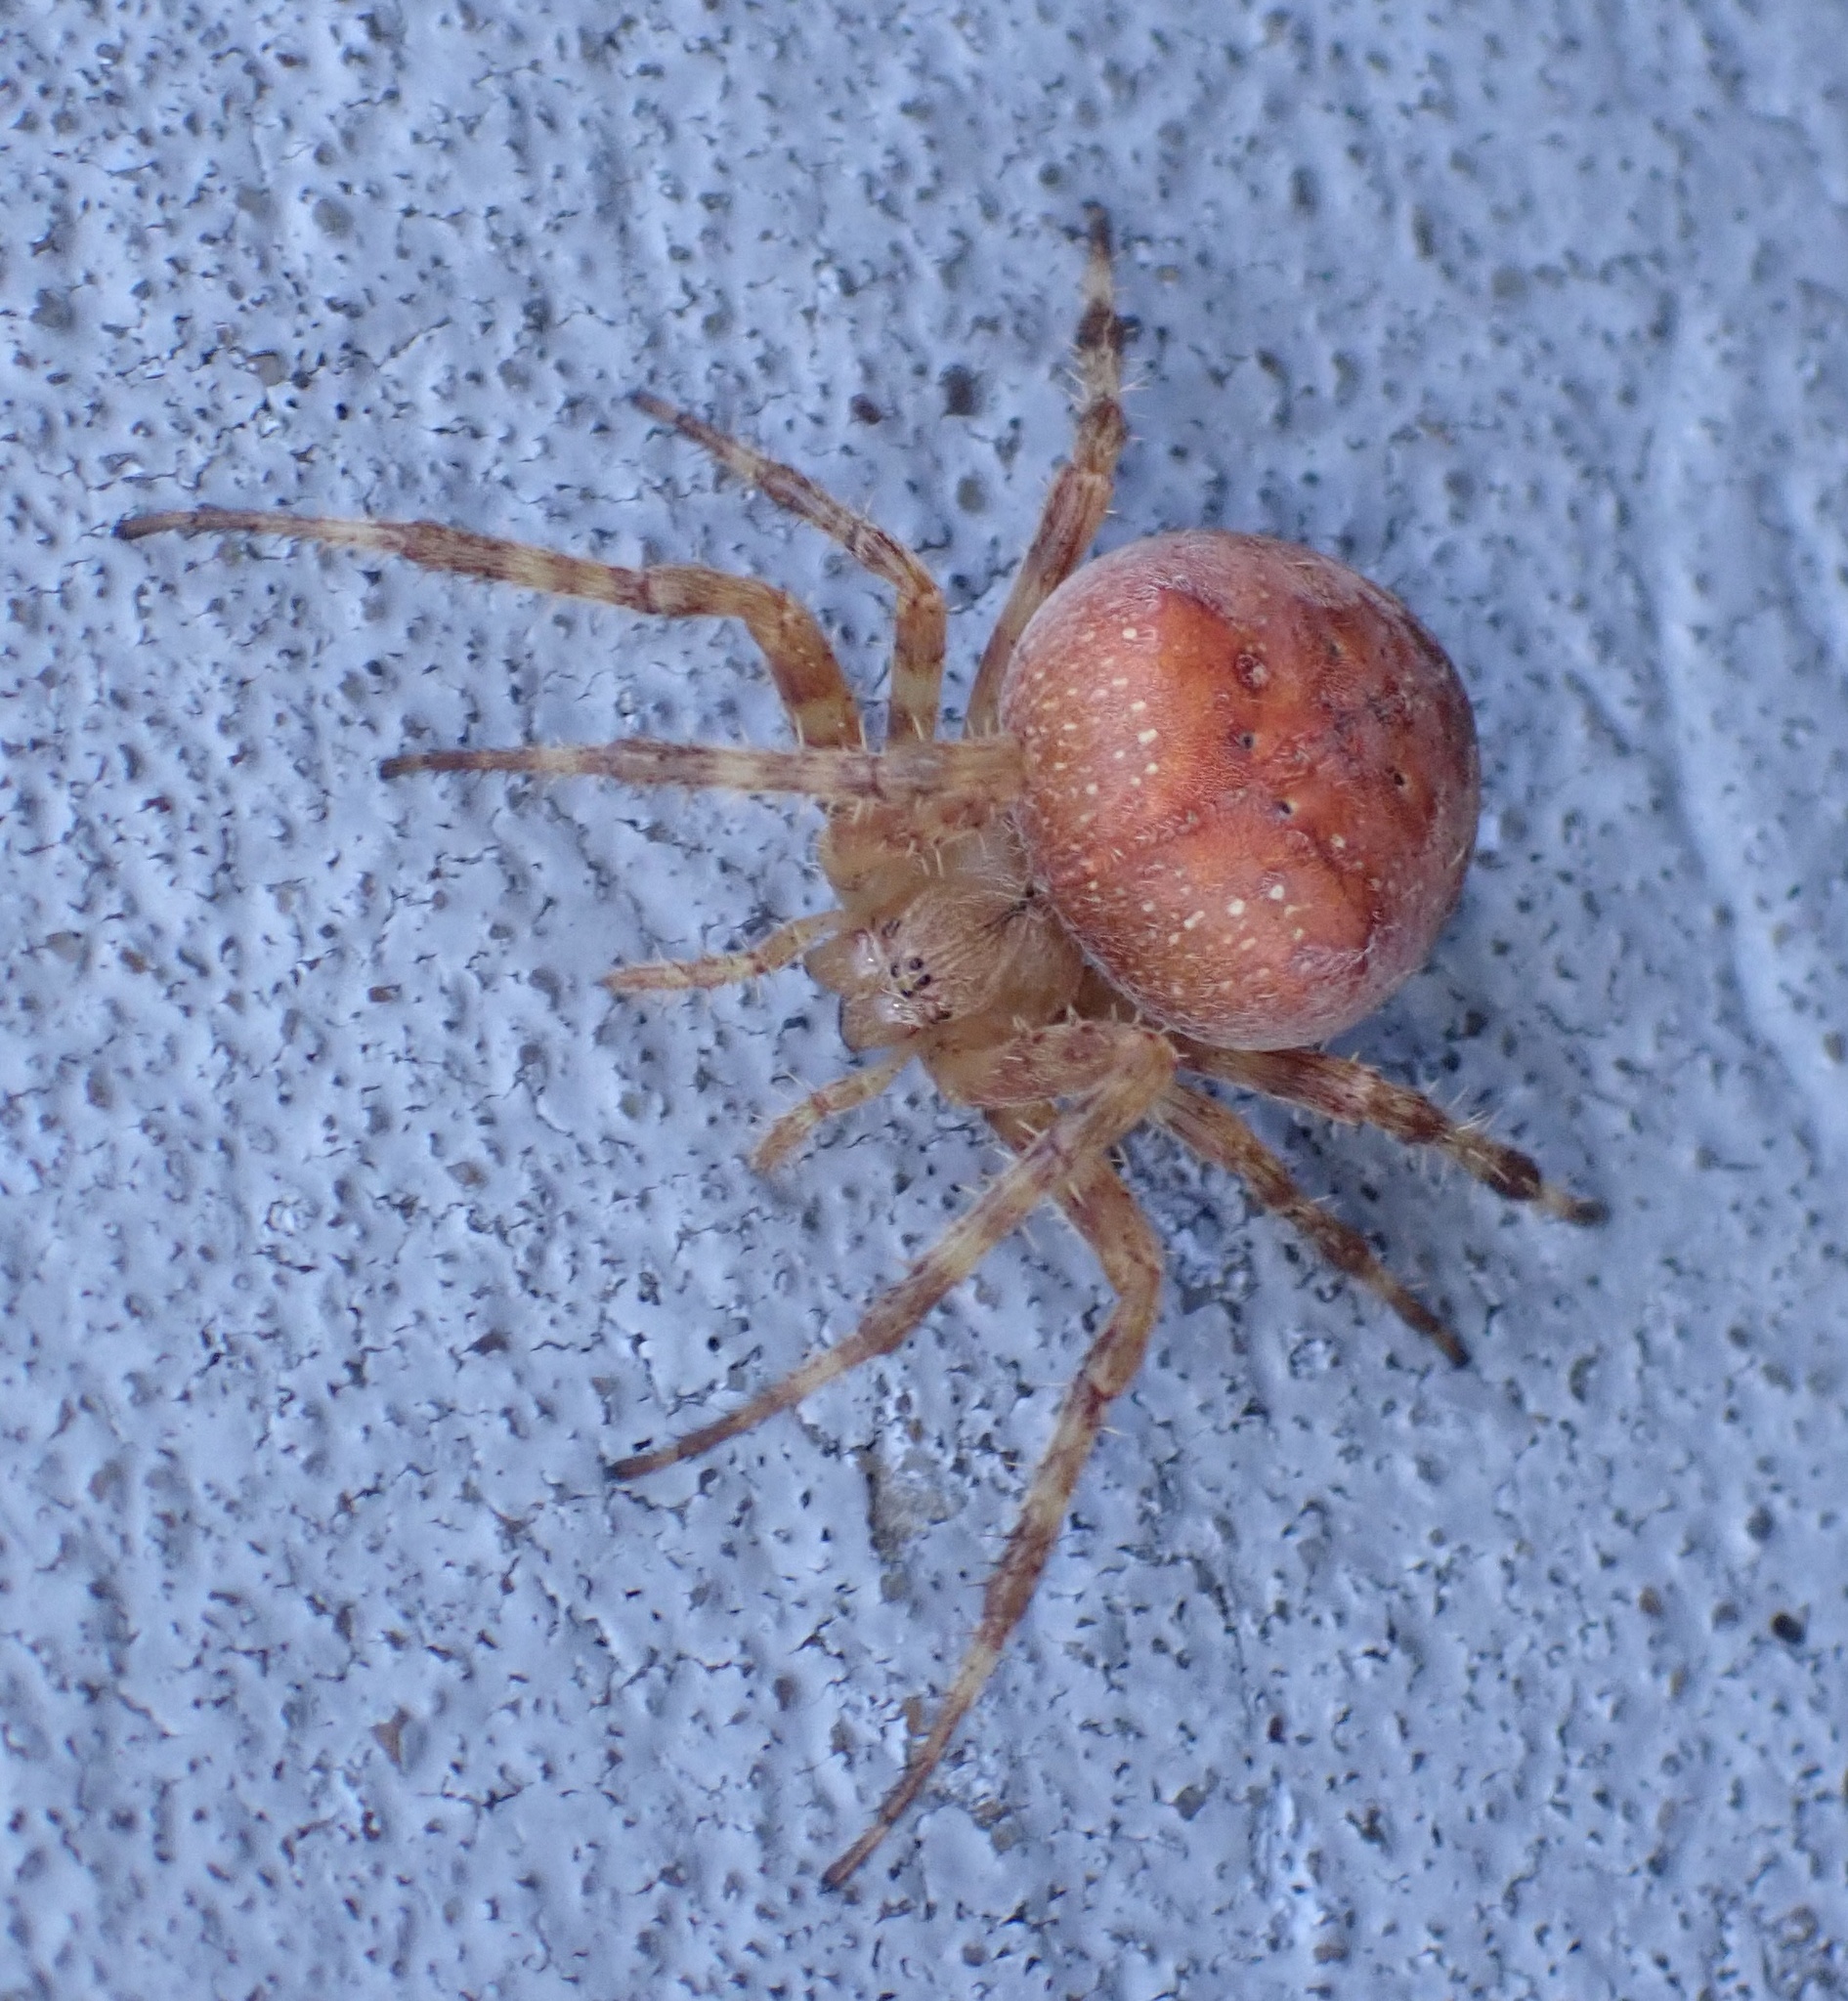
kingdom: Animalia
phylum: Arthropoda
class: Arachnida
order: Araneae
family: Araneidae
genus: Araneus
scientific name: Araneus diadematus
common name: Cross orbweaver
